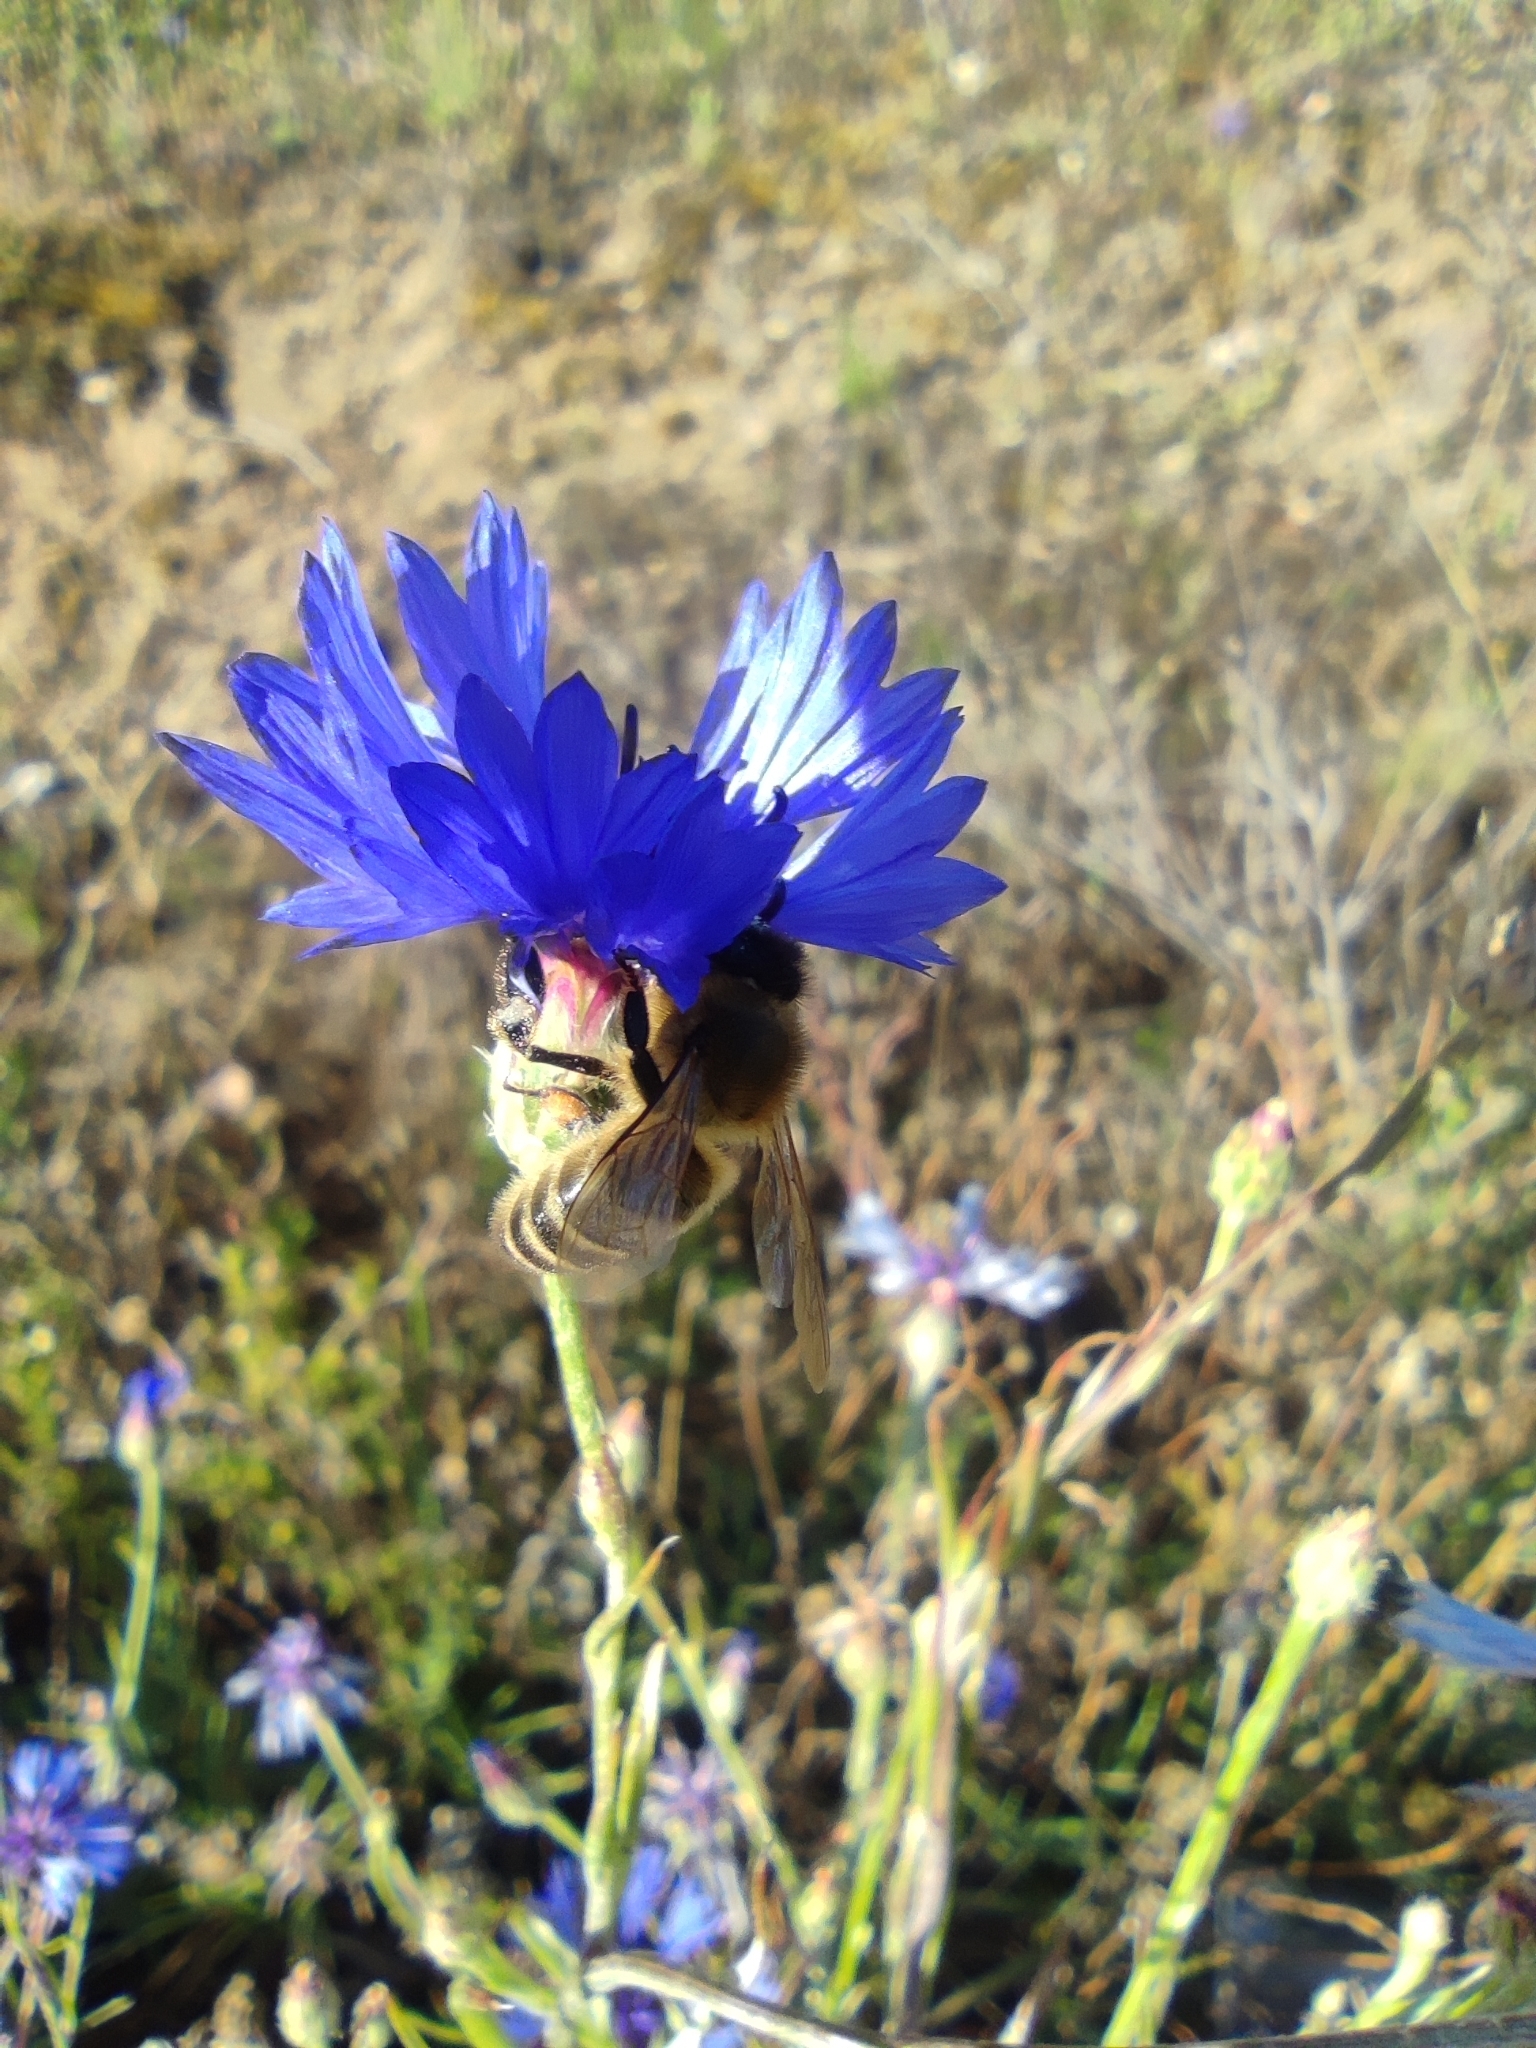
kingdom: Animalia
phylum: Arthropoda
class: Insecta
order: Hymenoptera
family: Apidae
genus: Apis
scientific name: Apis mellifera
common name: Honey bee
